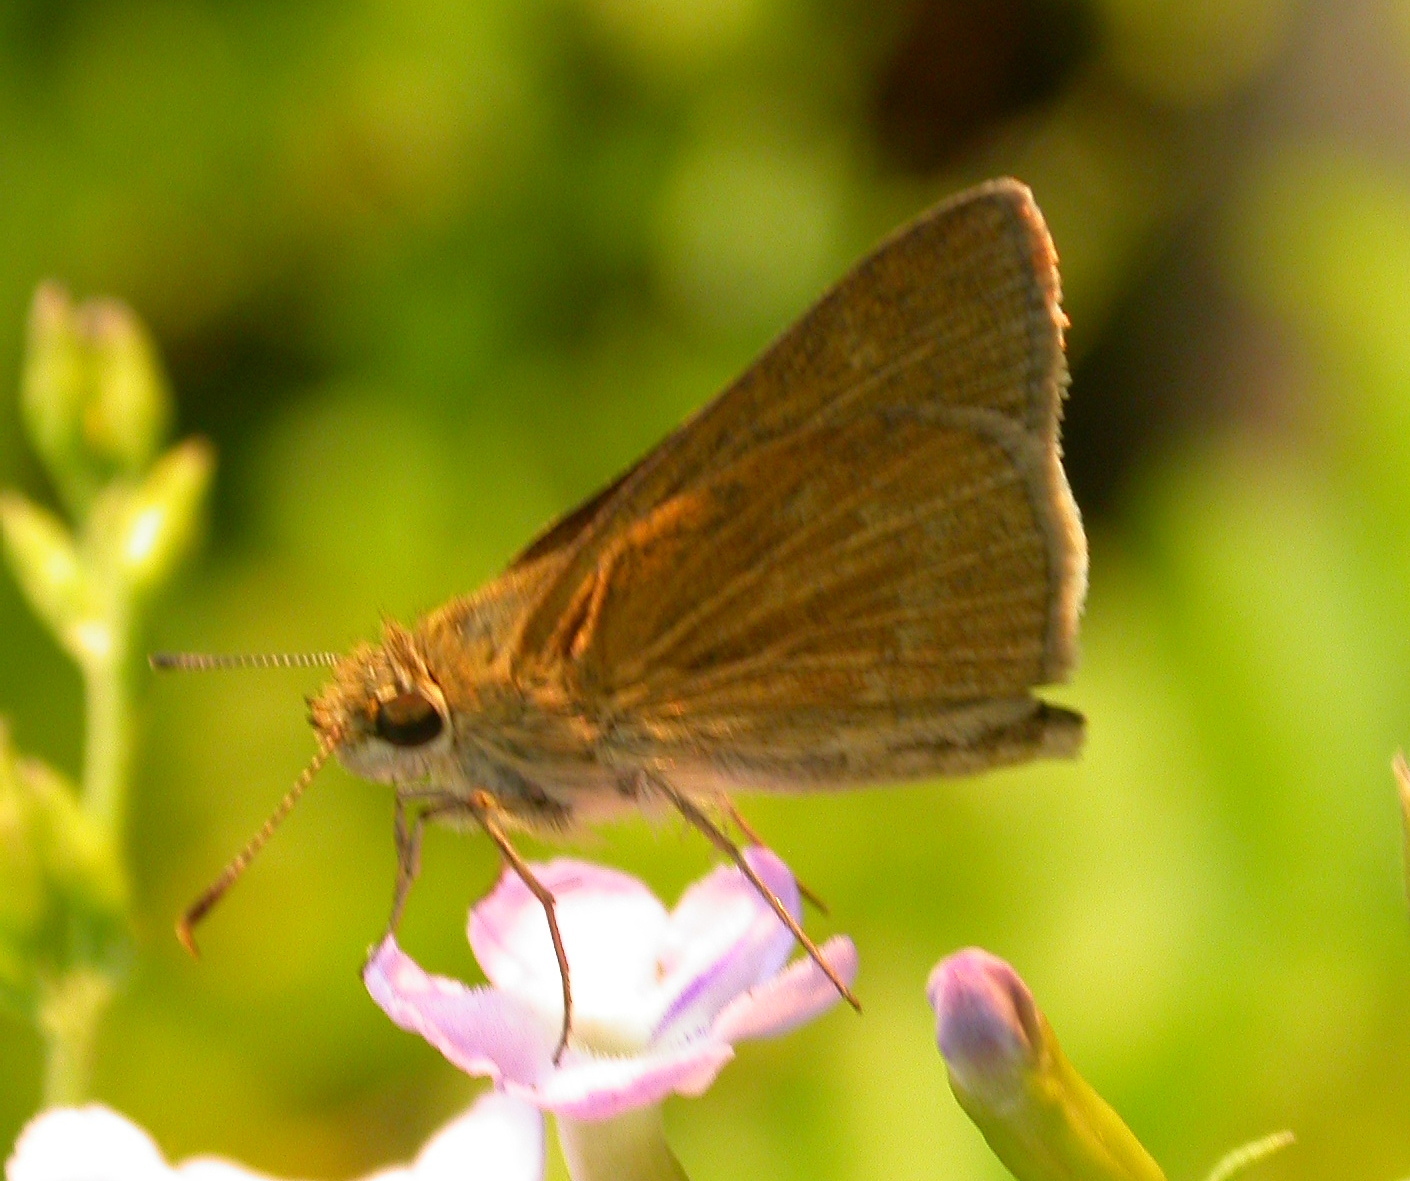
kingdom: Animalia
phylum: Arthropoda
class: Insecta
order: Lepidoptera
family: Hesperiidae
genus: Nastra
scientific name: Nastra julia
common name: Julia's skipper
